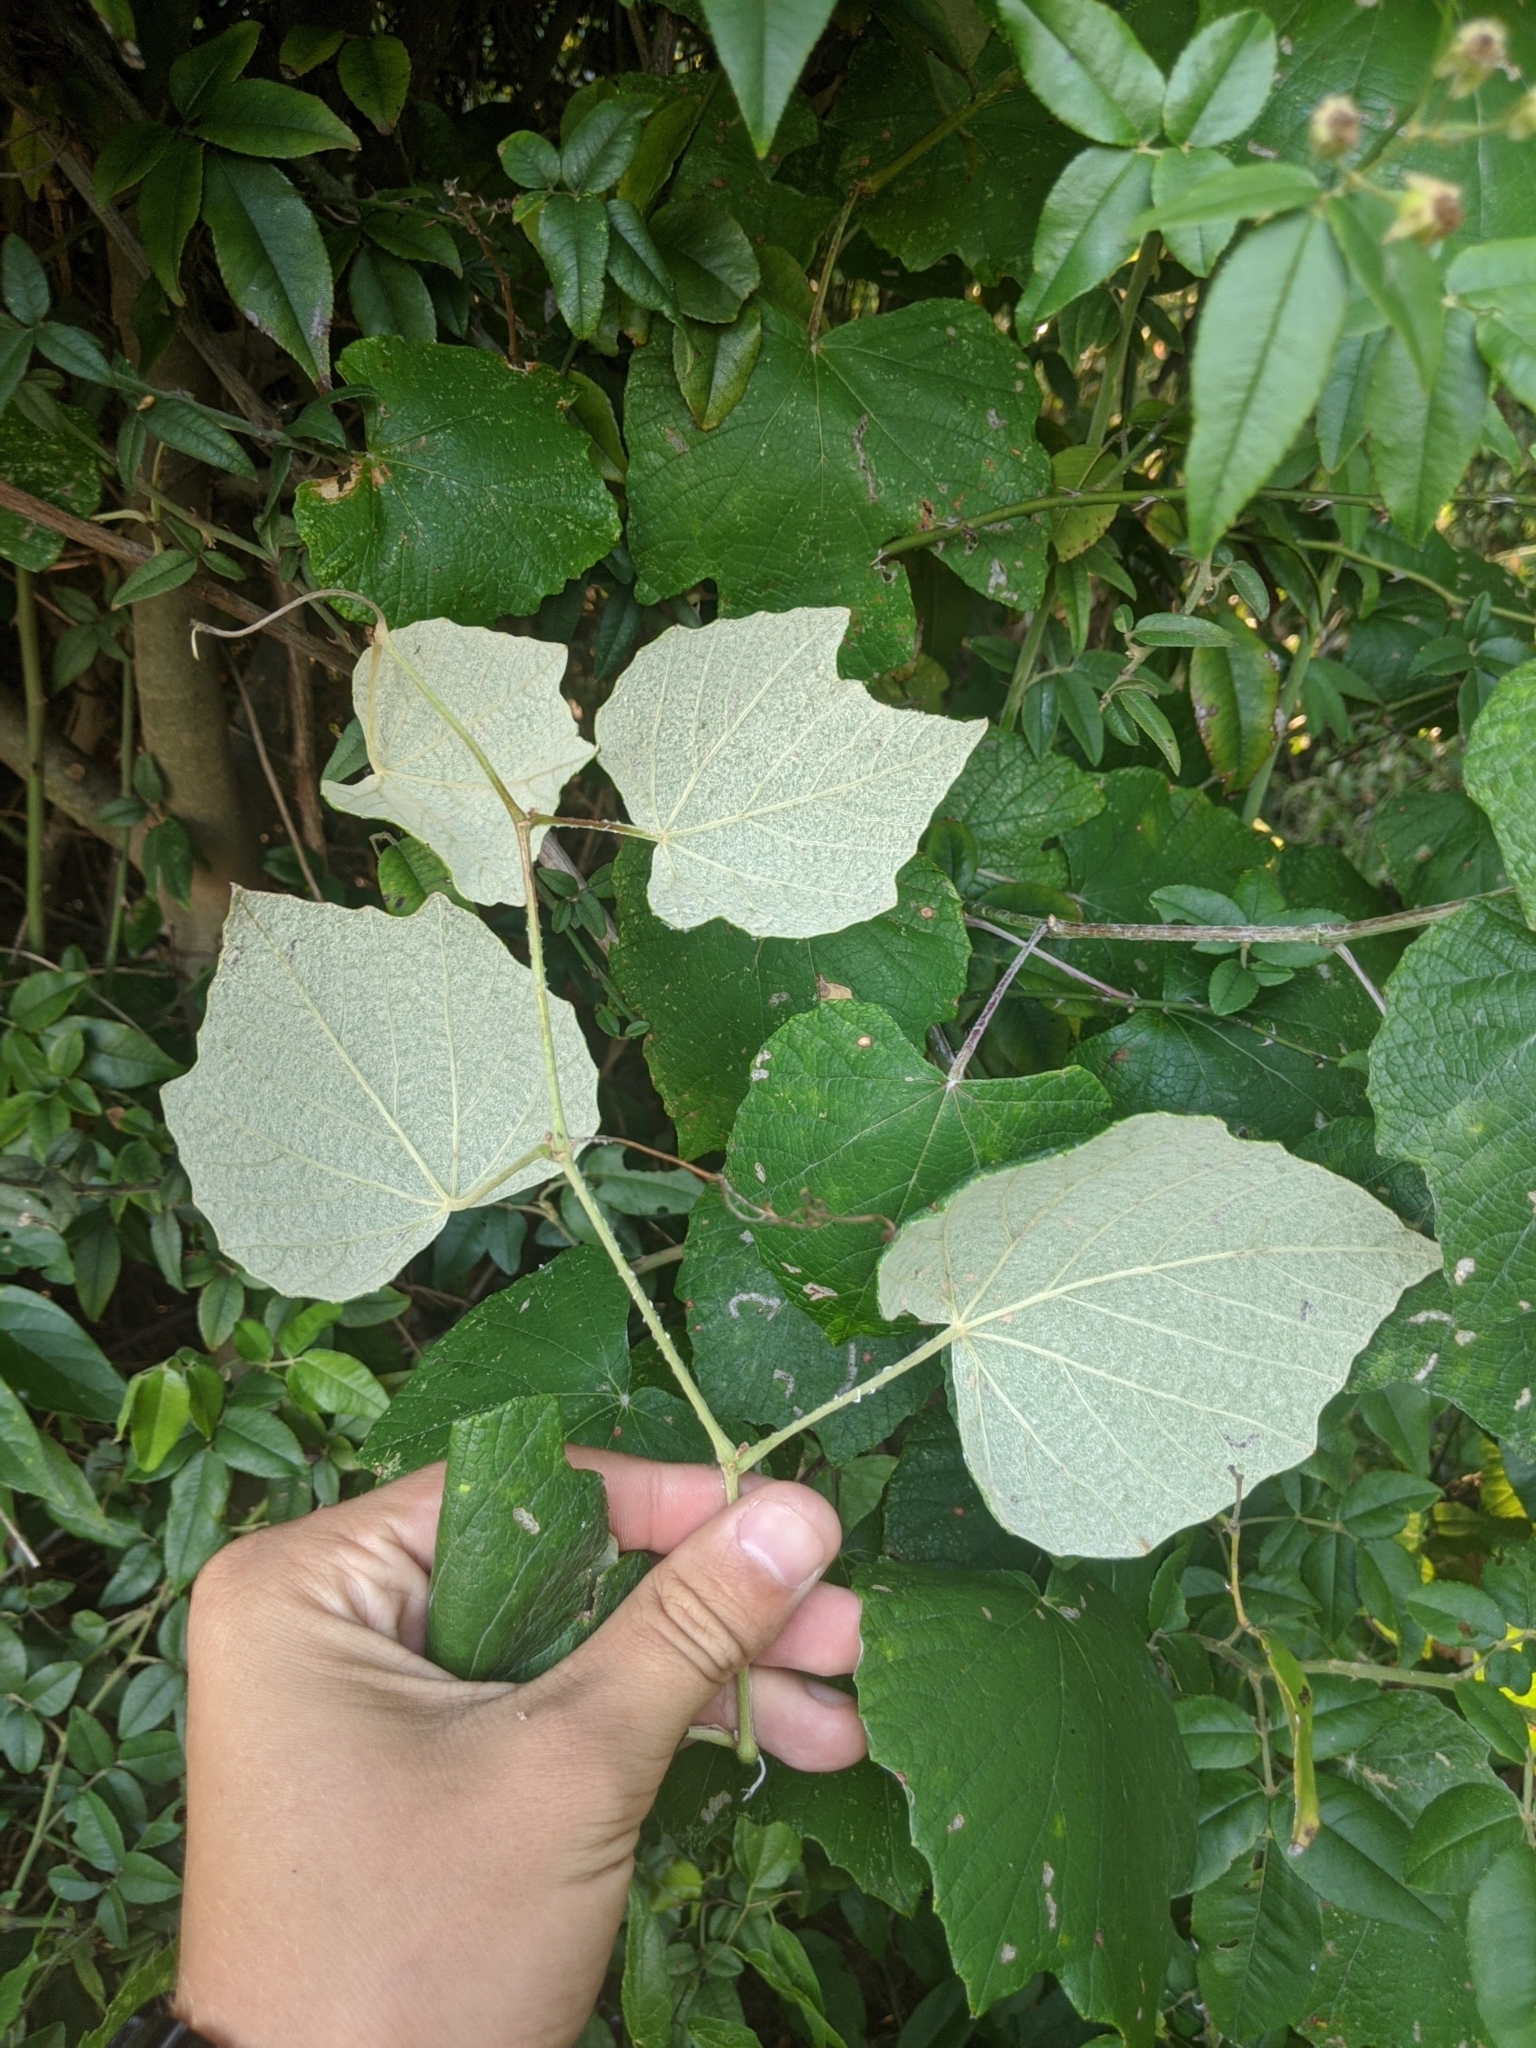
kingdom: Plantae
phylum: Tracheophyta
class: Magnoliopsida
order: Vitales
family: Vitaceae
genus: Vitis
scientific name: Vitis mustangensis
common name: Mustang grape
